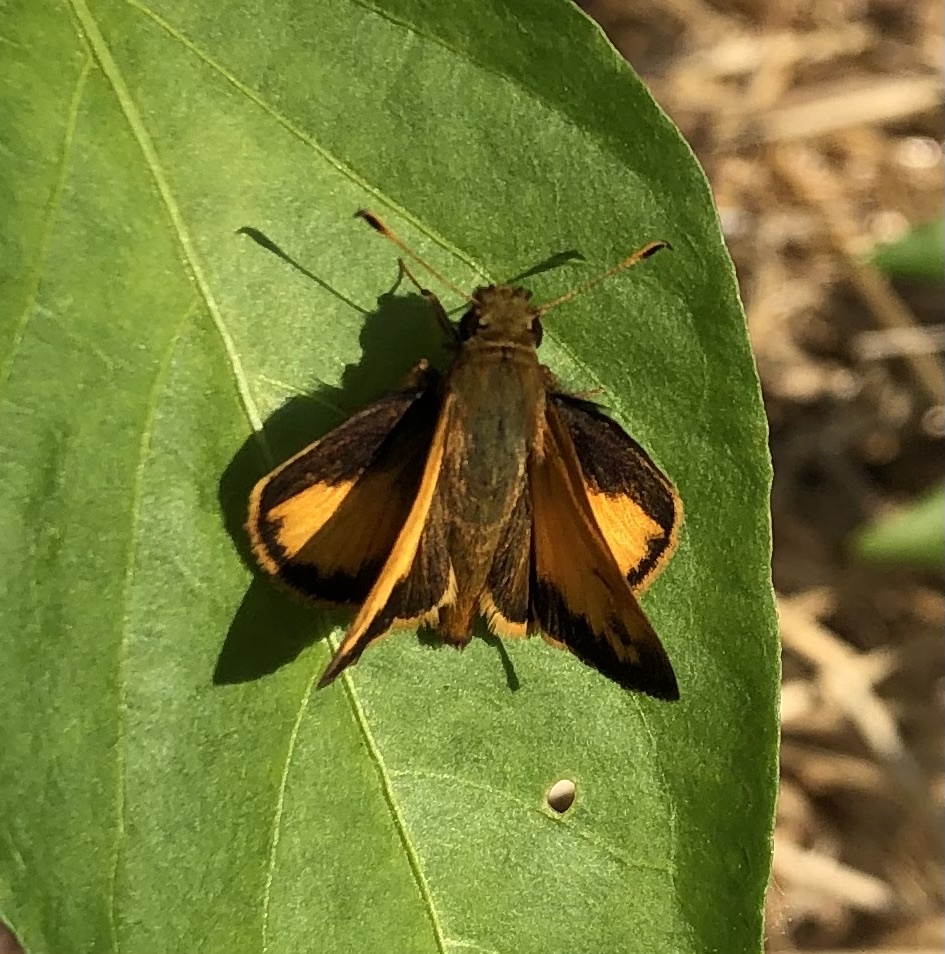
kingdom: Animalia
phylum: Arthropoda
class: Insecta
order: Lepidoptera
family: Hesperiidae
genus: Lon
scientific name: Lon zabulon
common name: Zabulon skipper
